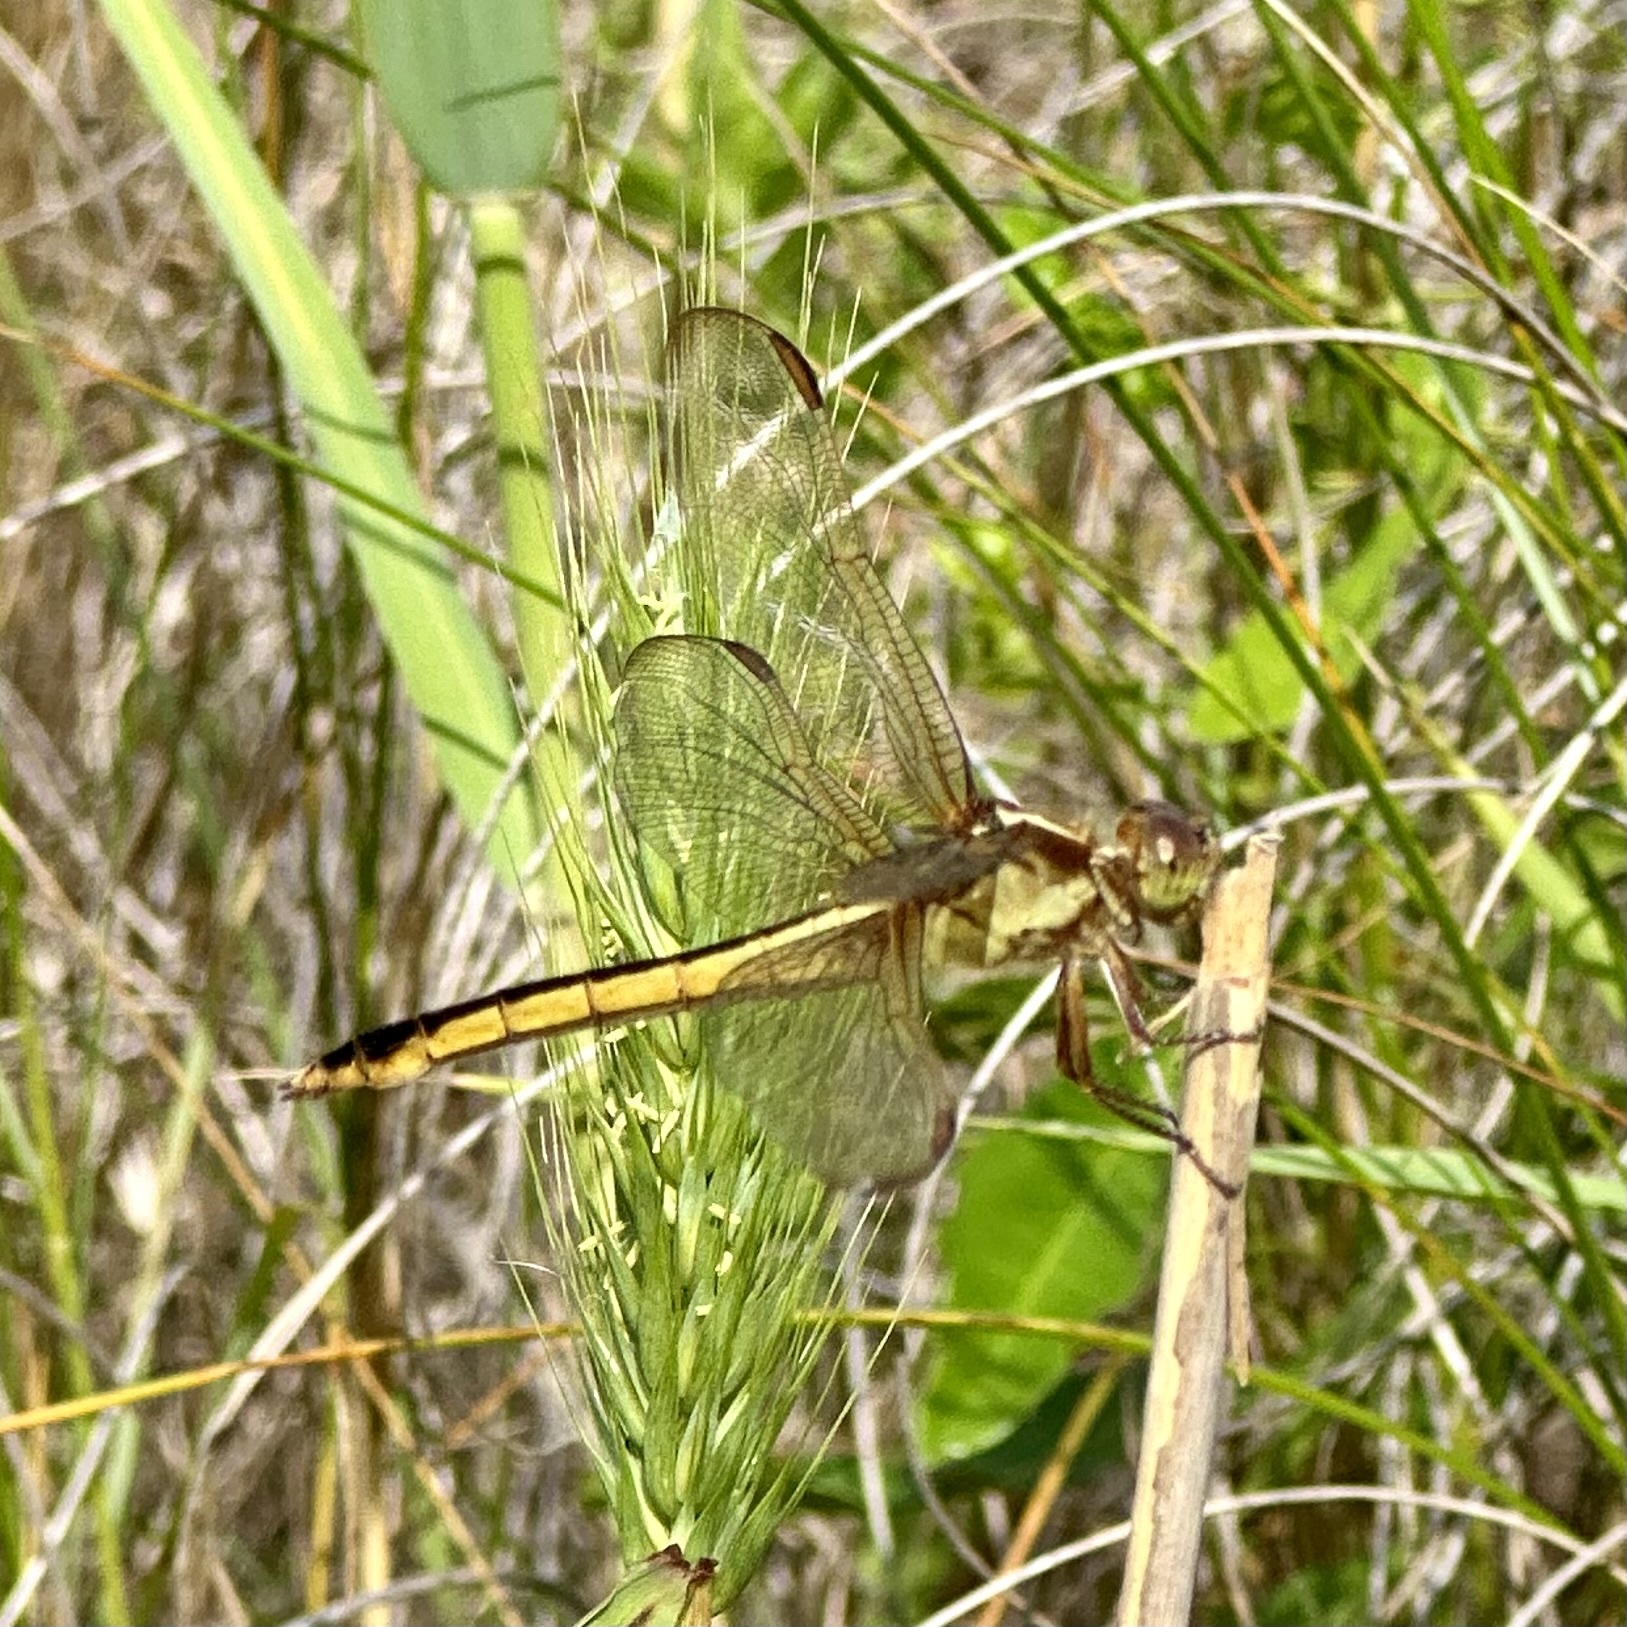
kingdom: Animalia
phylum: Arthropoda
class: Insecta
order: Odonata
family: Libellulidae
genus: Libellula
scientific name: Libellula needhami
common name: Needham's skimmer
